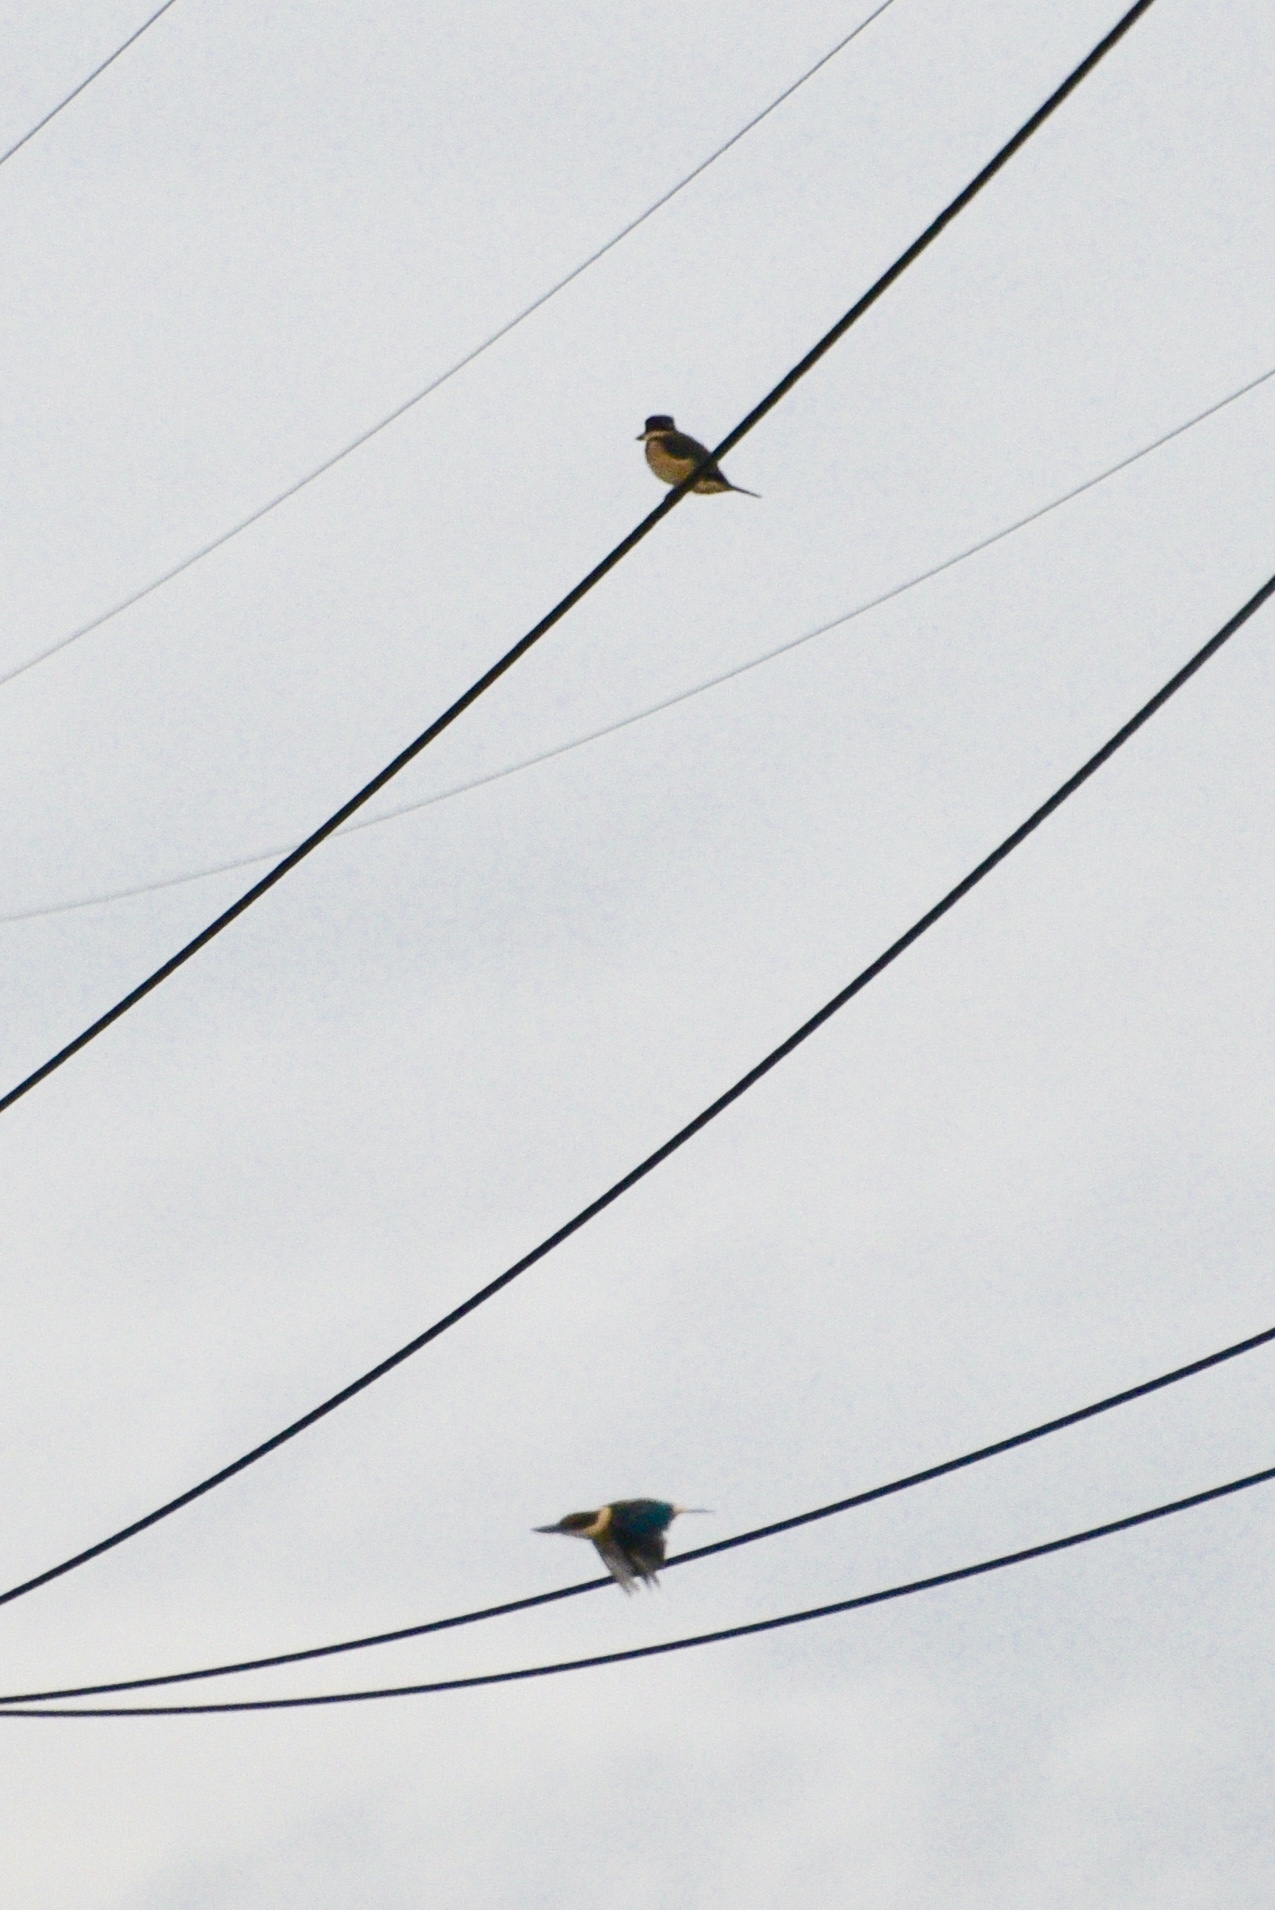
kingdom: Animalia
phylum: Chordata
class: Aves
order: Coraciiformes
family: Alcedinidae
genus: Todiramphus
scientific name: Todiramphus sanctus
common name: Sacred kingfisher
